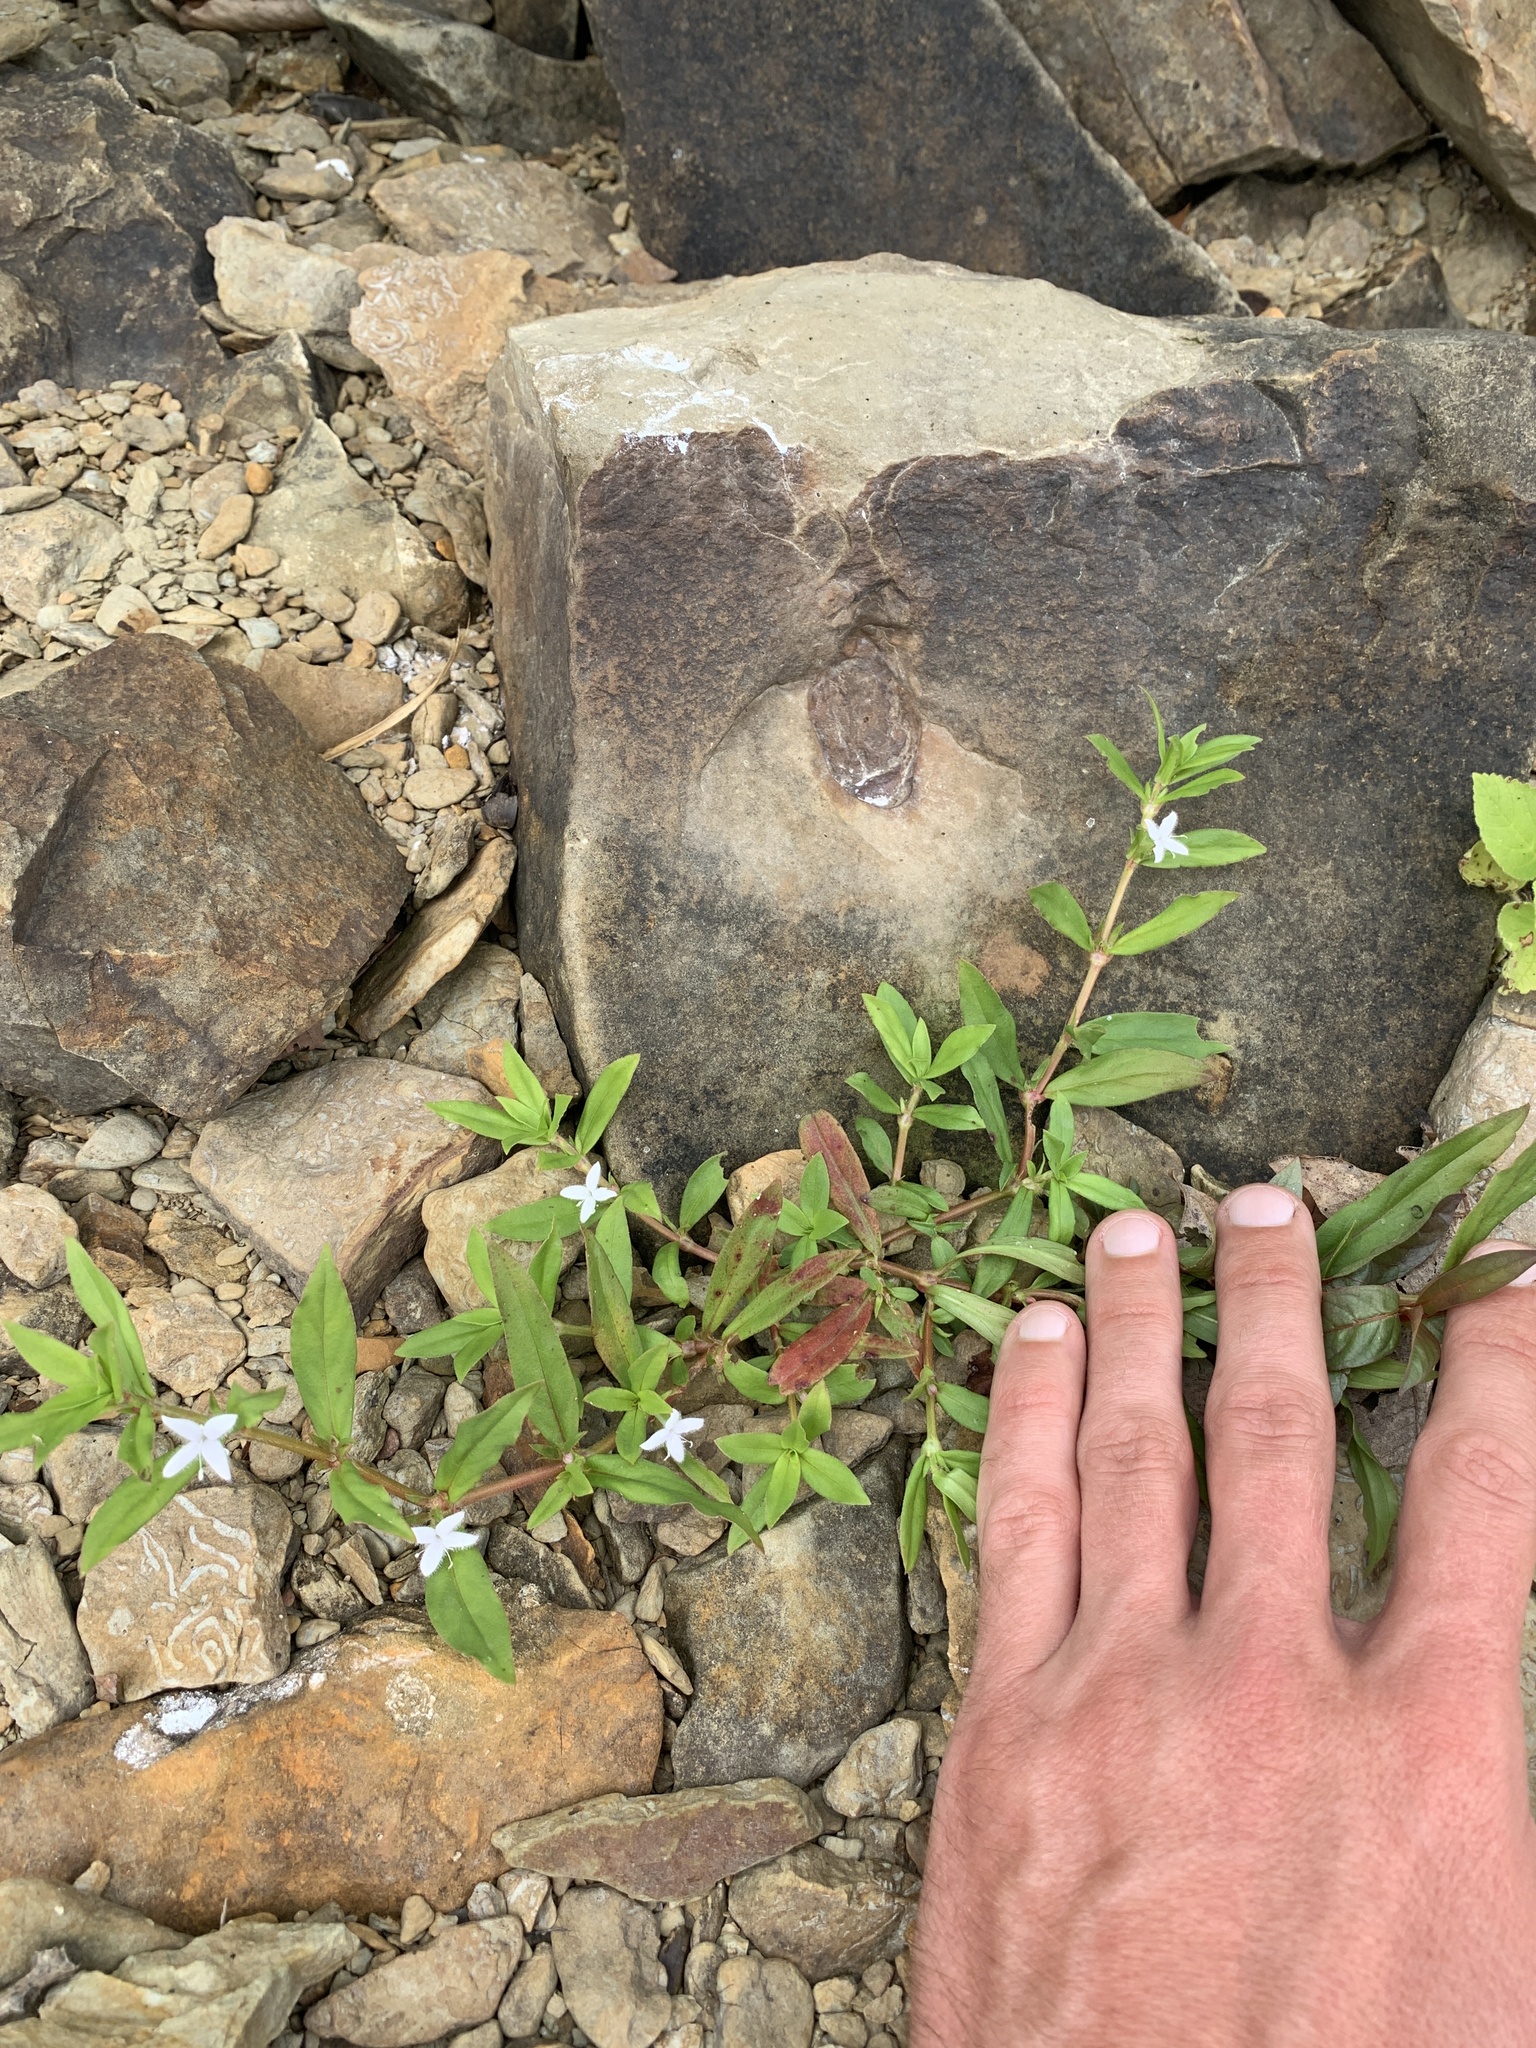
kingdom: Plantae
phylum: Tracheophyta
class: Magnoliopsida
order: Gentianales
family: Rubiaceae
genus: Diodia
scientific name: Diodia virginiana
